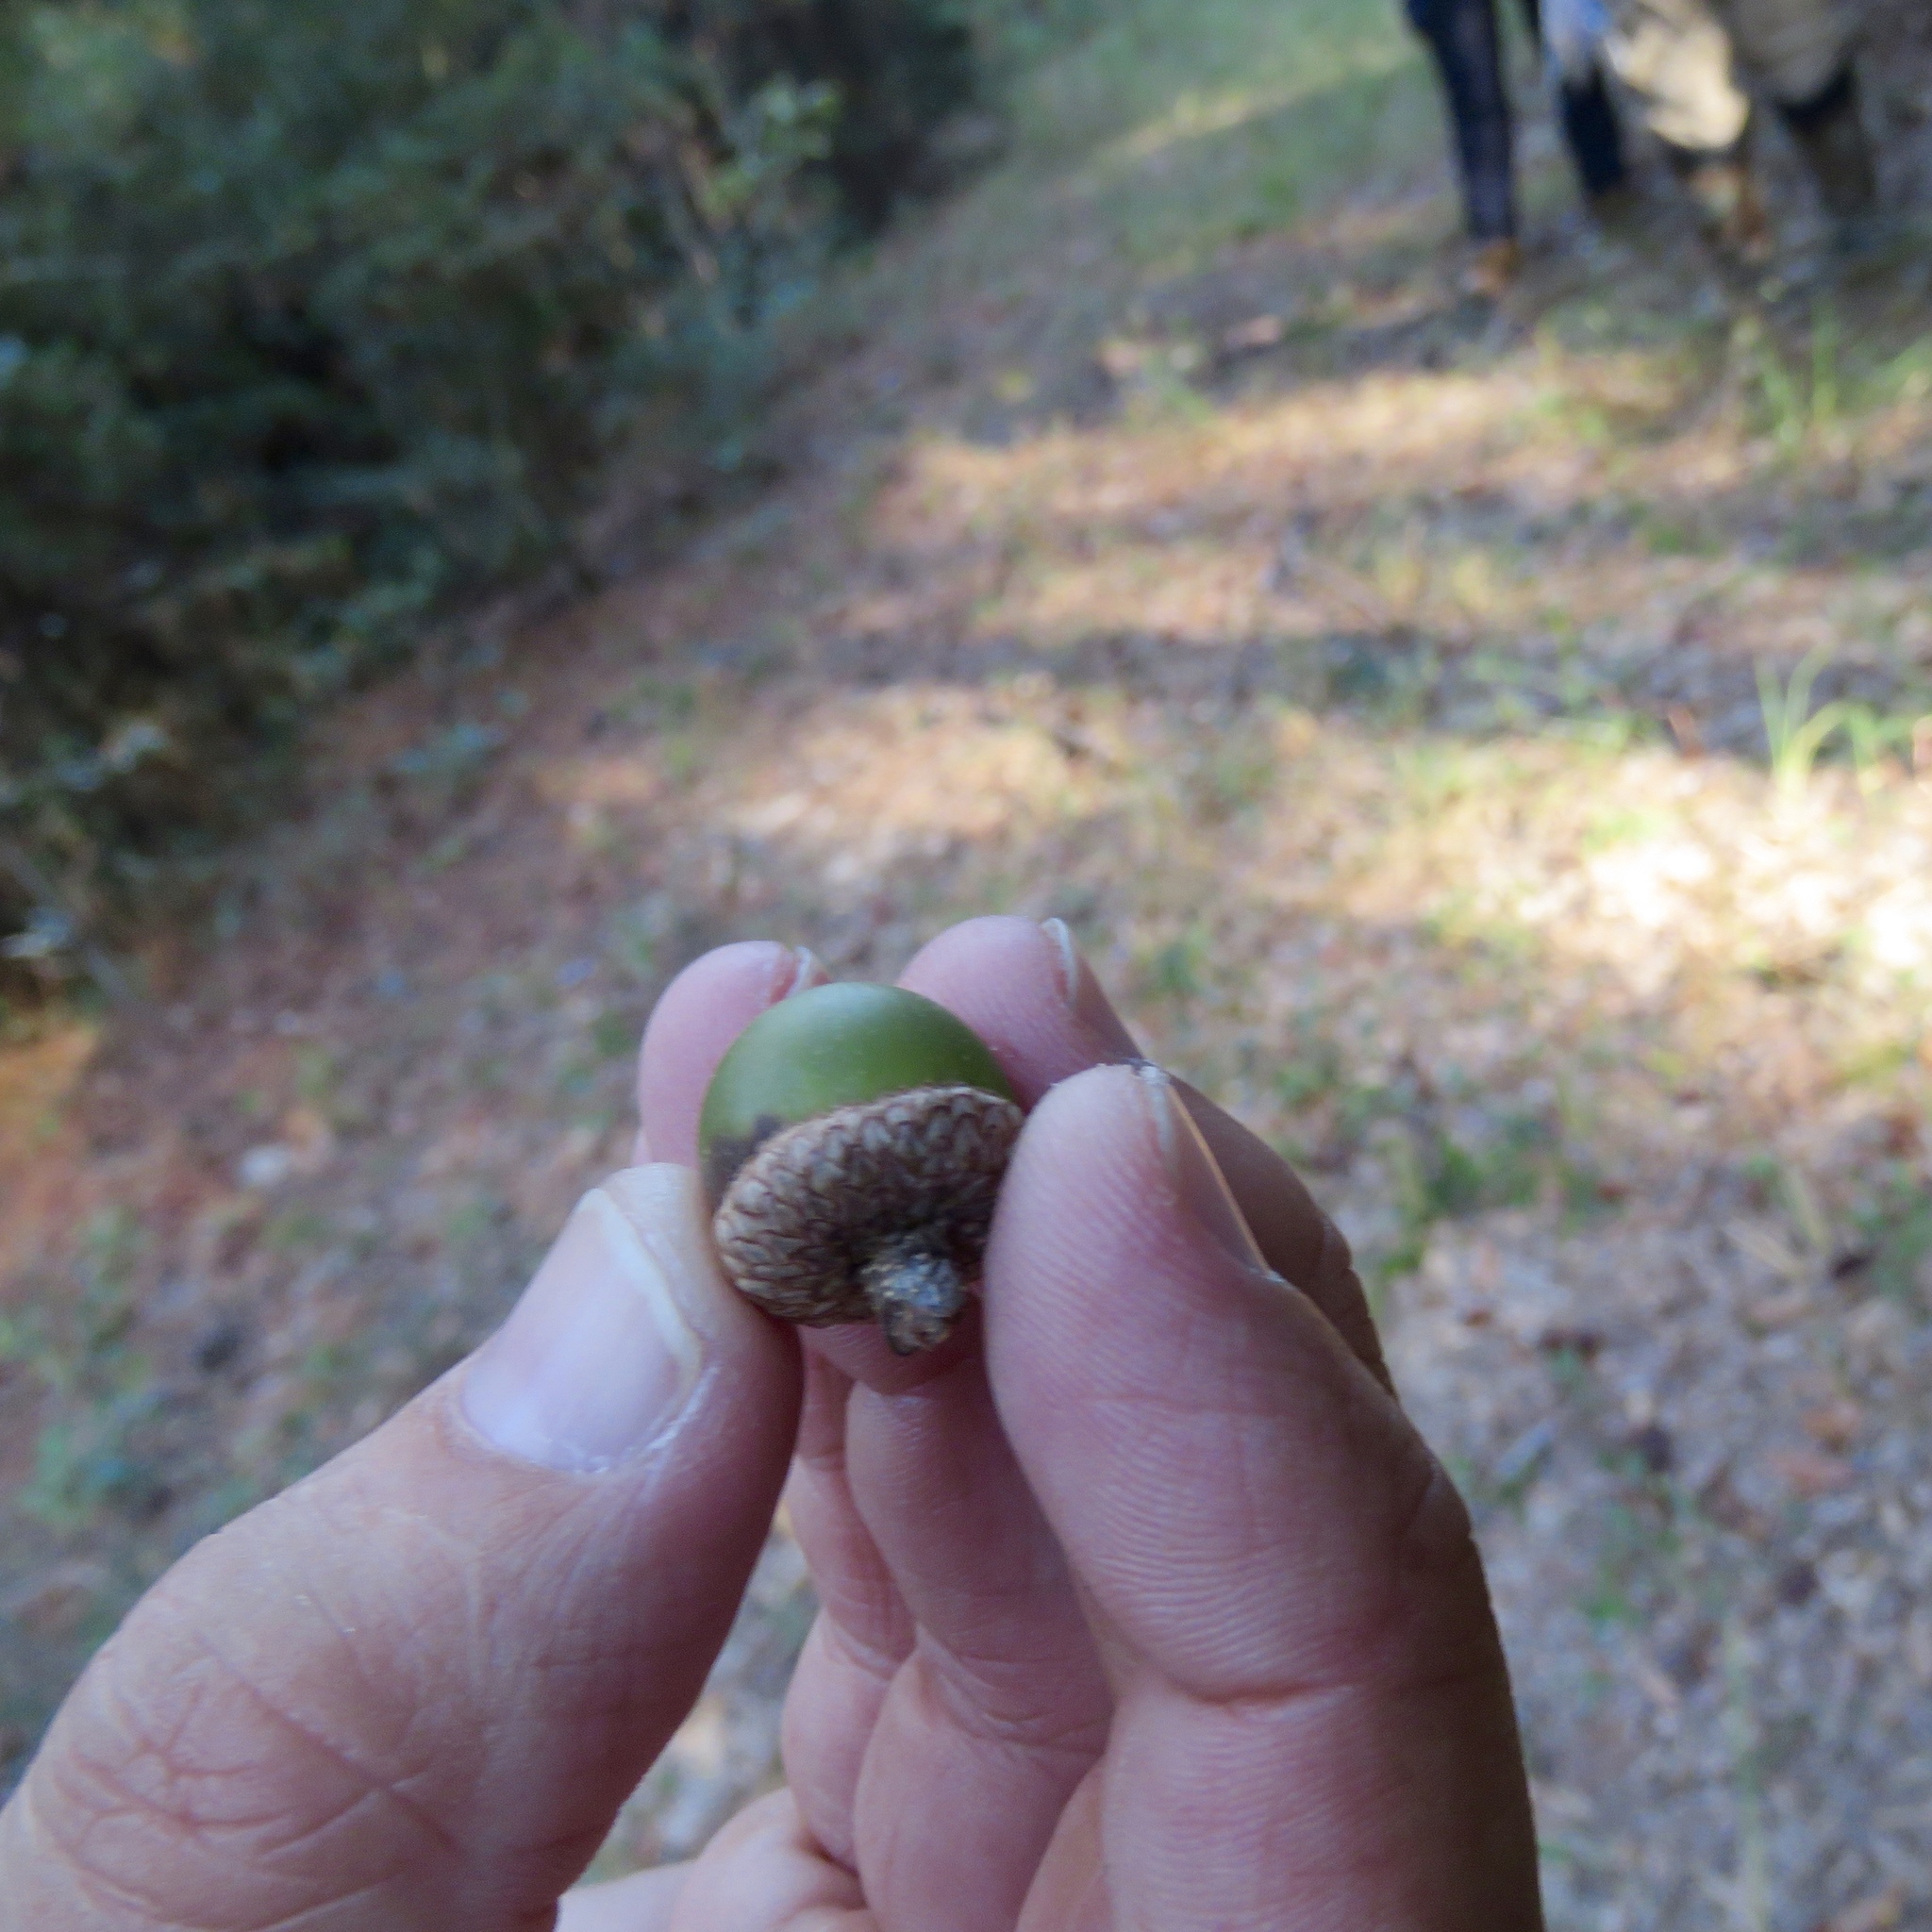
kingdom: Plantae
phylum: Tracheophyta
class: Magnoliopsida
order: Fagales
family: Fagaceae
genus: Quercus
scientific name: Quercus hemisphaerica
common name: Darlington oak
